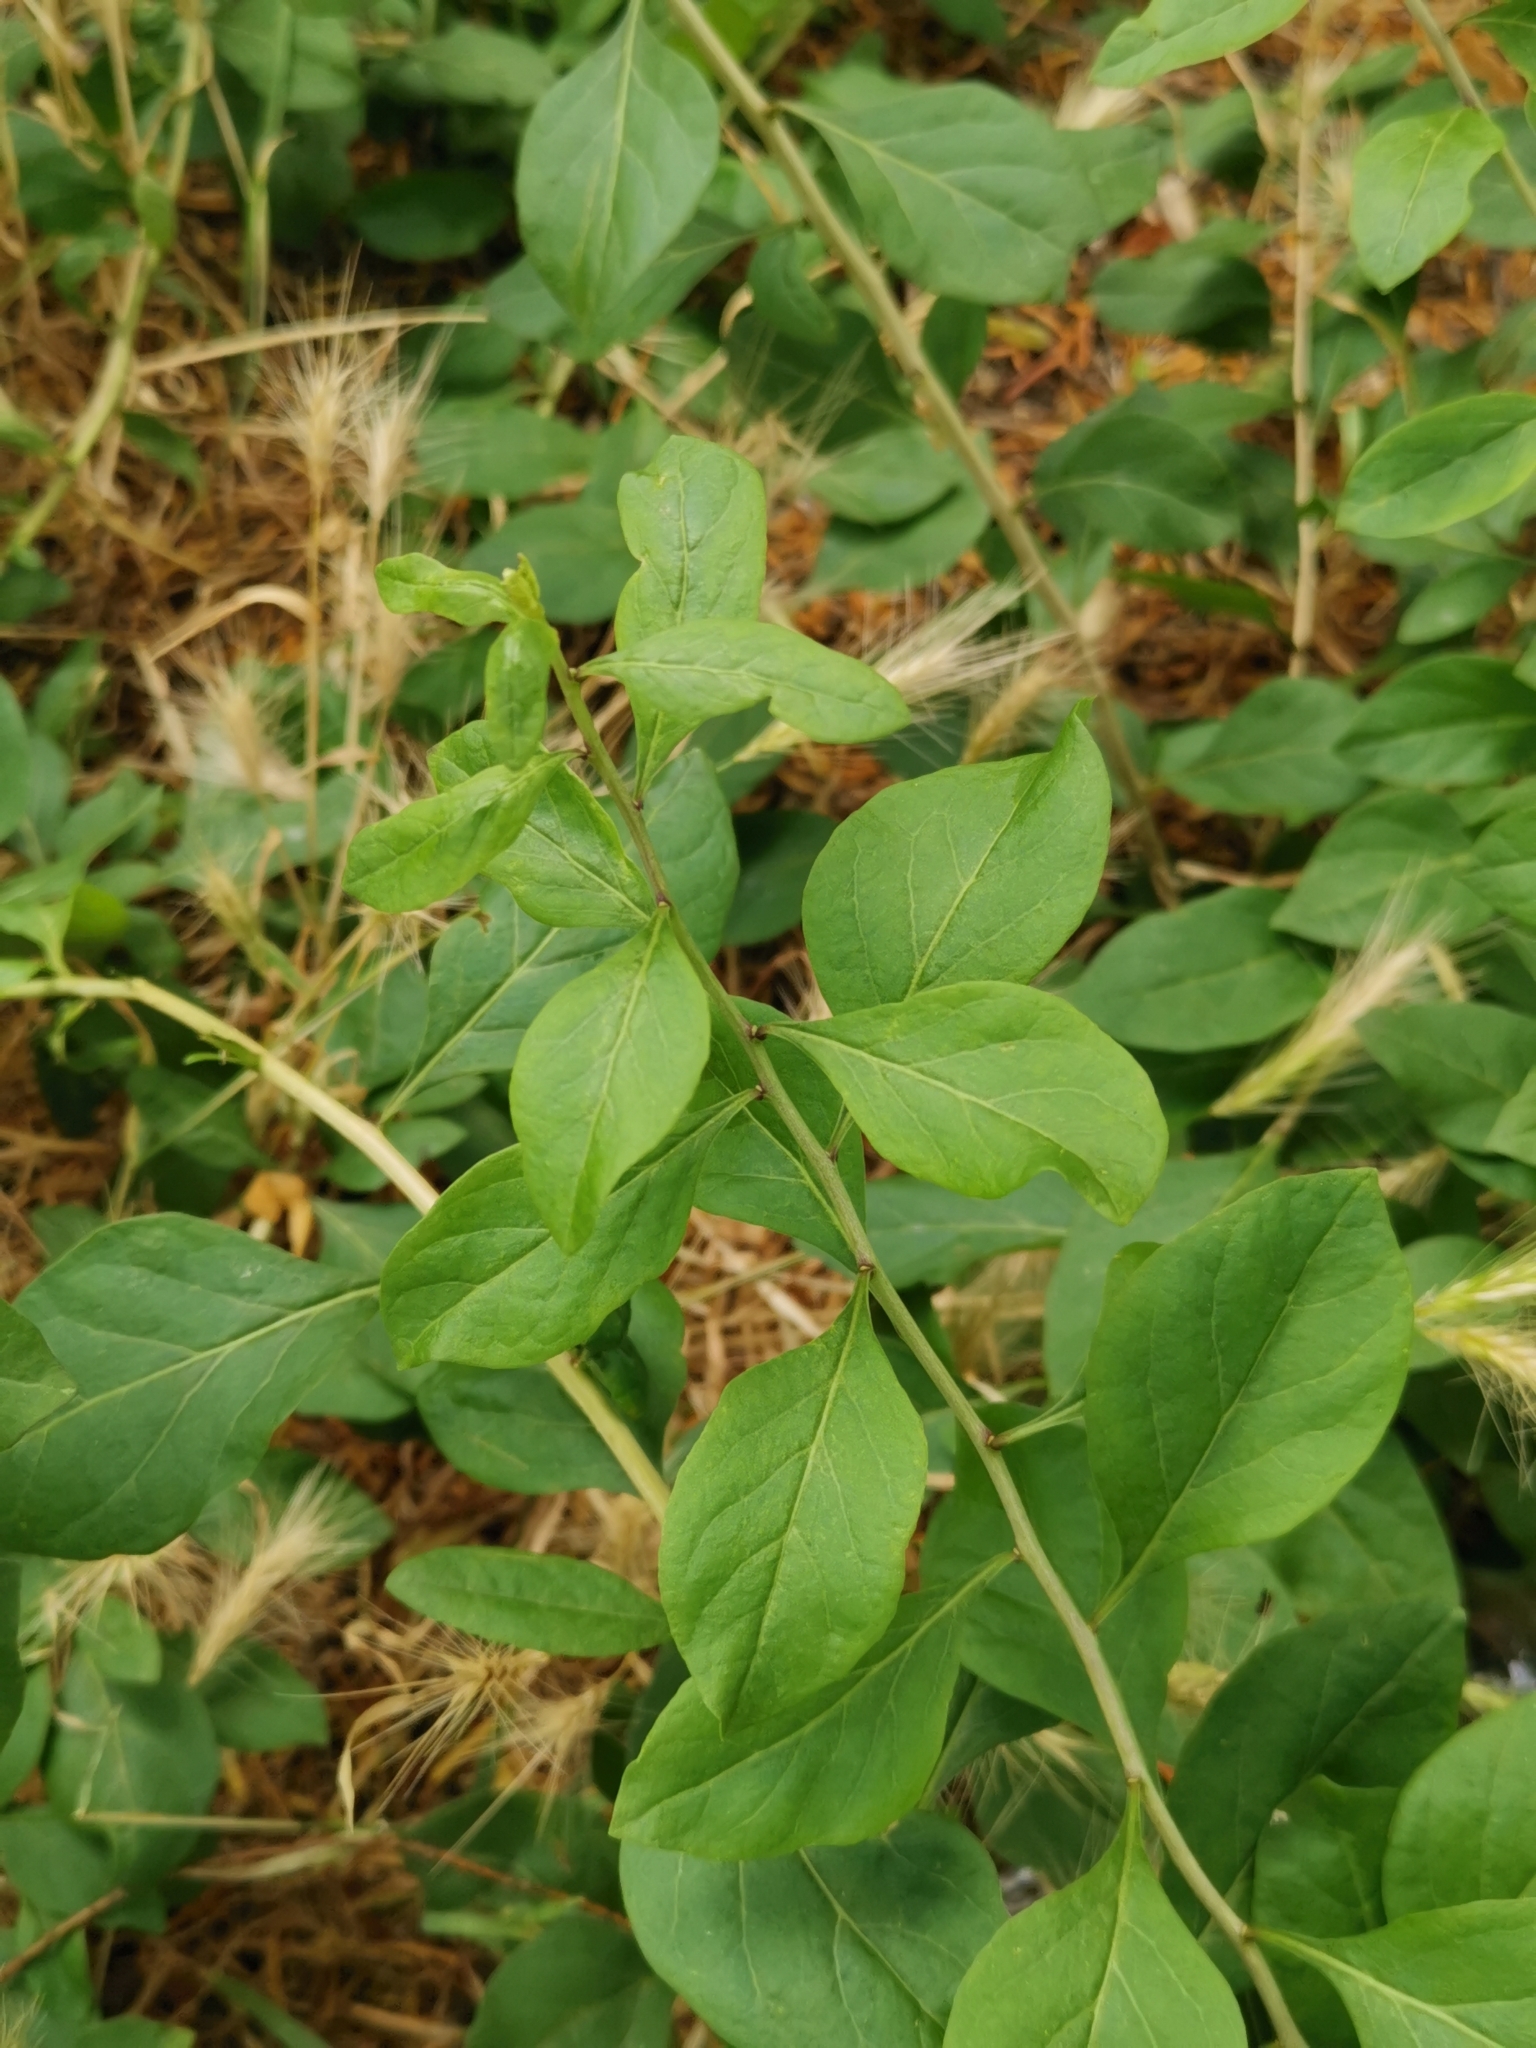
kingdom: Plantae
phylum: Tracheophyta
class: Magnoliopsida
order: Celastrales
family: Celastraceae
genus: Euonymus
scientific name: Euonymus europaeus
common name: Spindle
